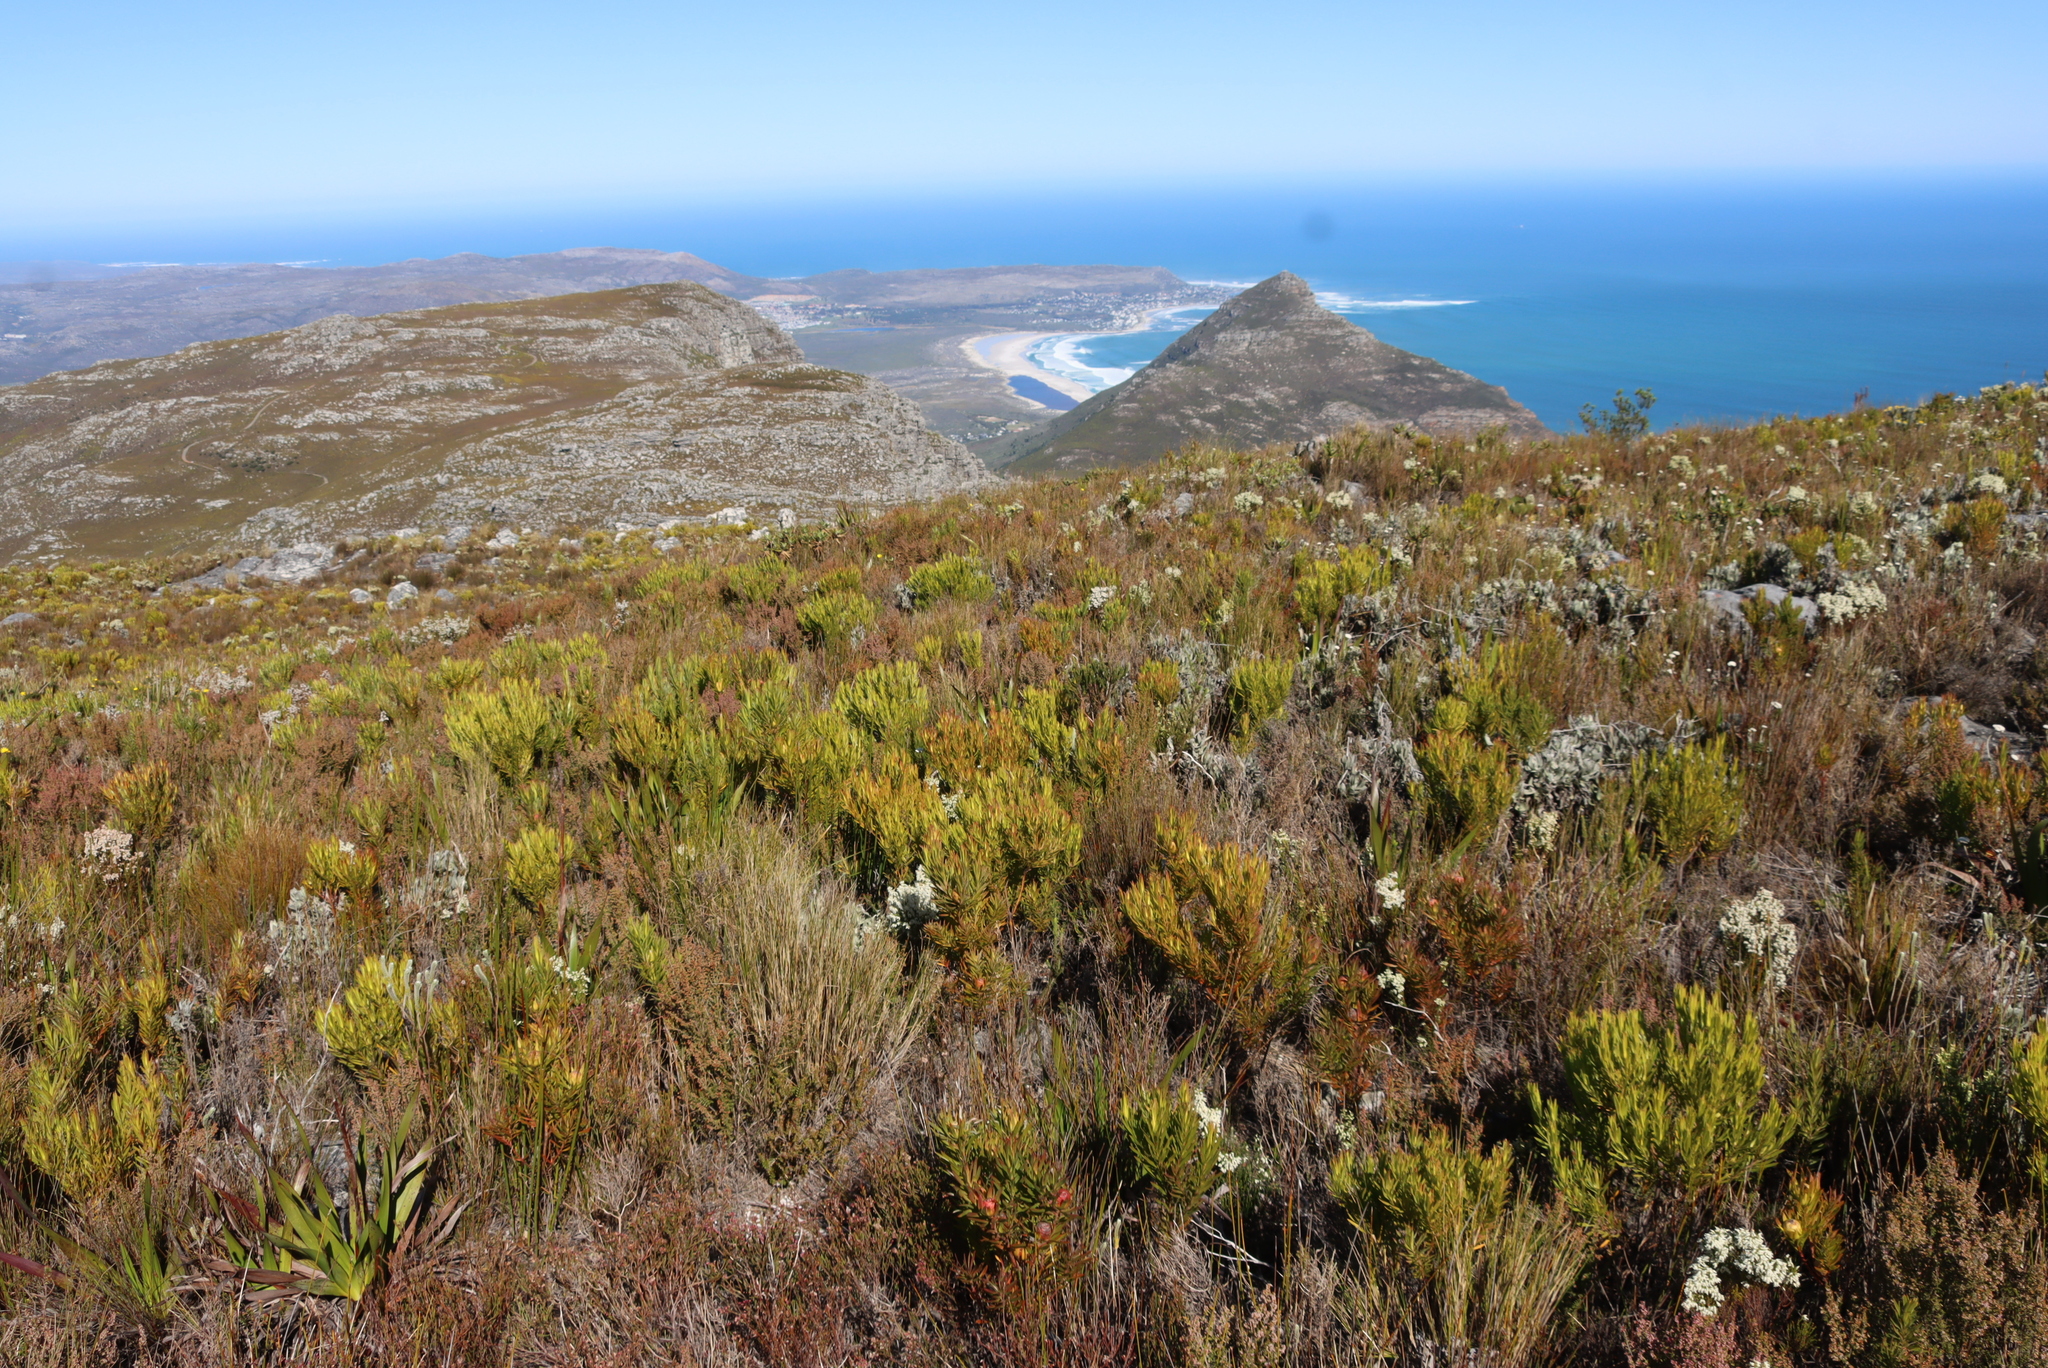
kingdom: Plantae
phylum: Tracheophyta
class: Magnoliopsida
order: Proteales
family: Proteaceae
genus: Leucadendron
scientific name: Leucadendron xanthoconus
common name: Sickle-leaf conebush
